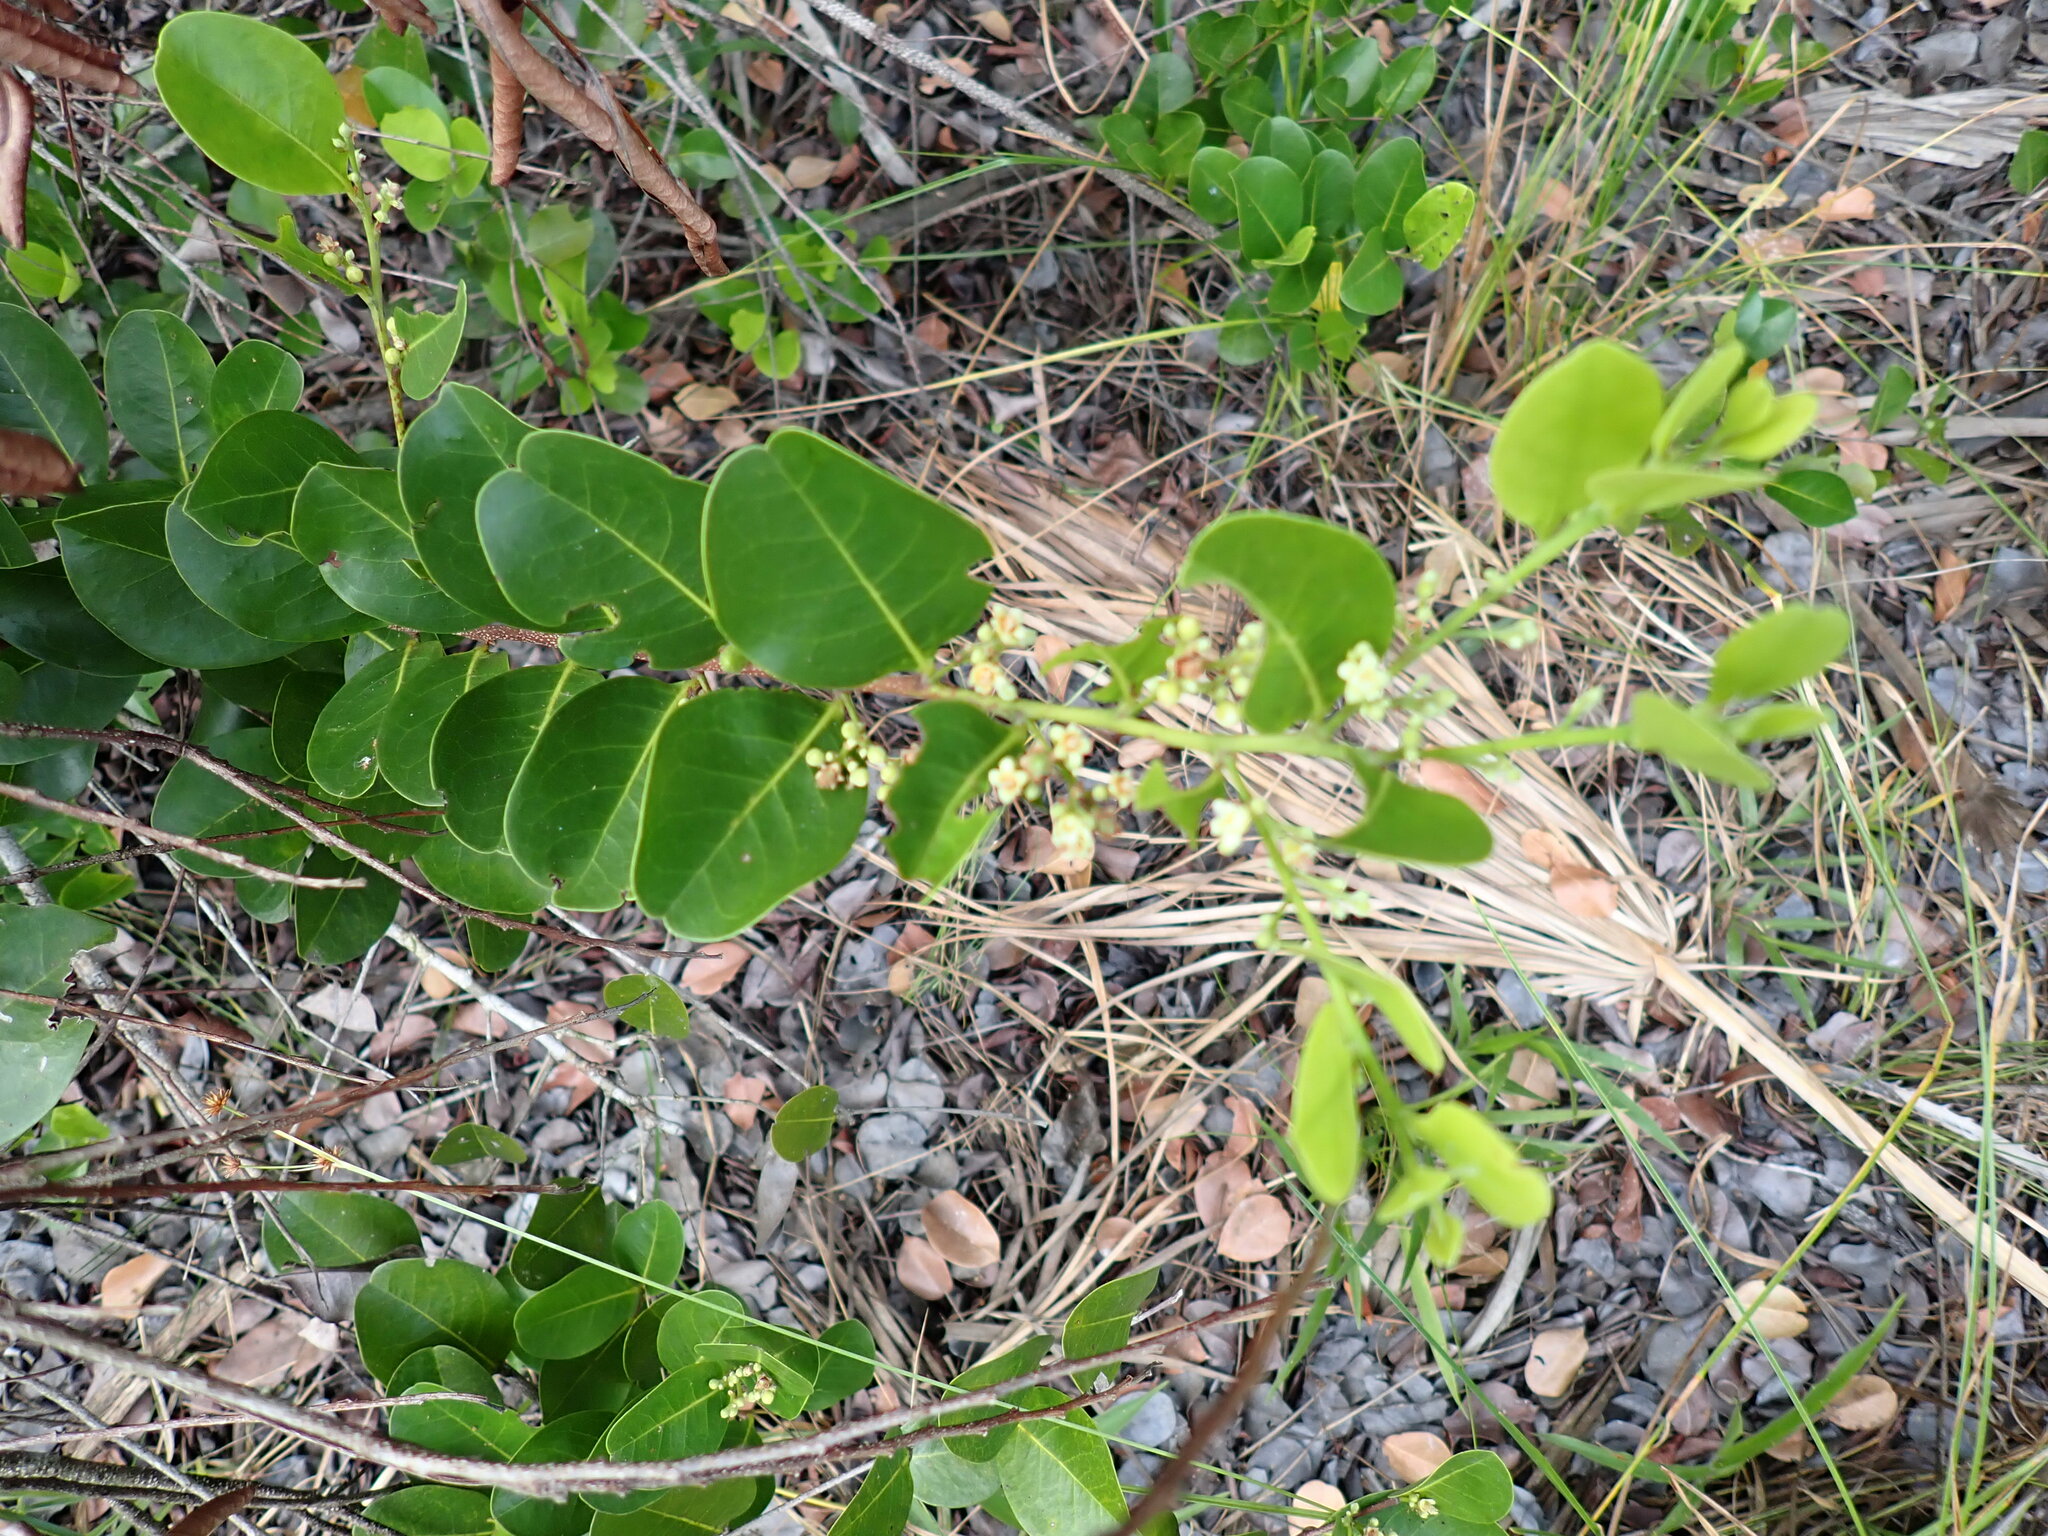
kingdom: Plantae
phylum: Tracheophyta
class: Magnoliopsida
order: Malpighiales
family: Chrysobalanaceae
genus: Chrysobalanus
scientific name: Chrysobalanus icaco
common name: Coco plum
